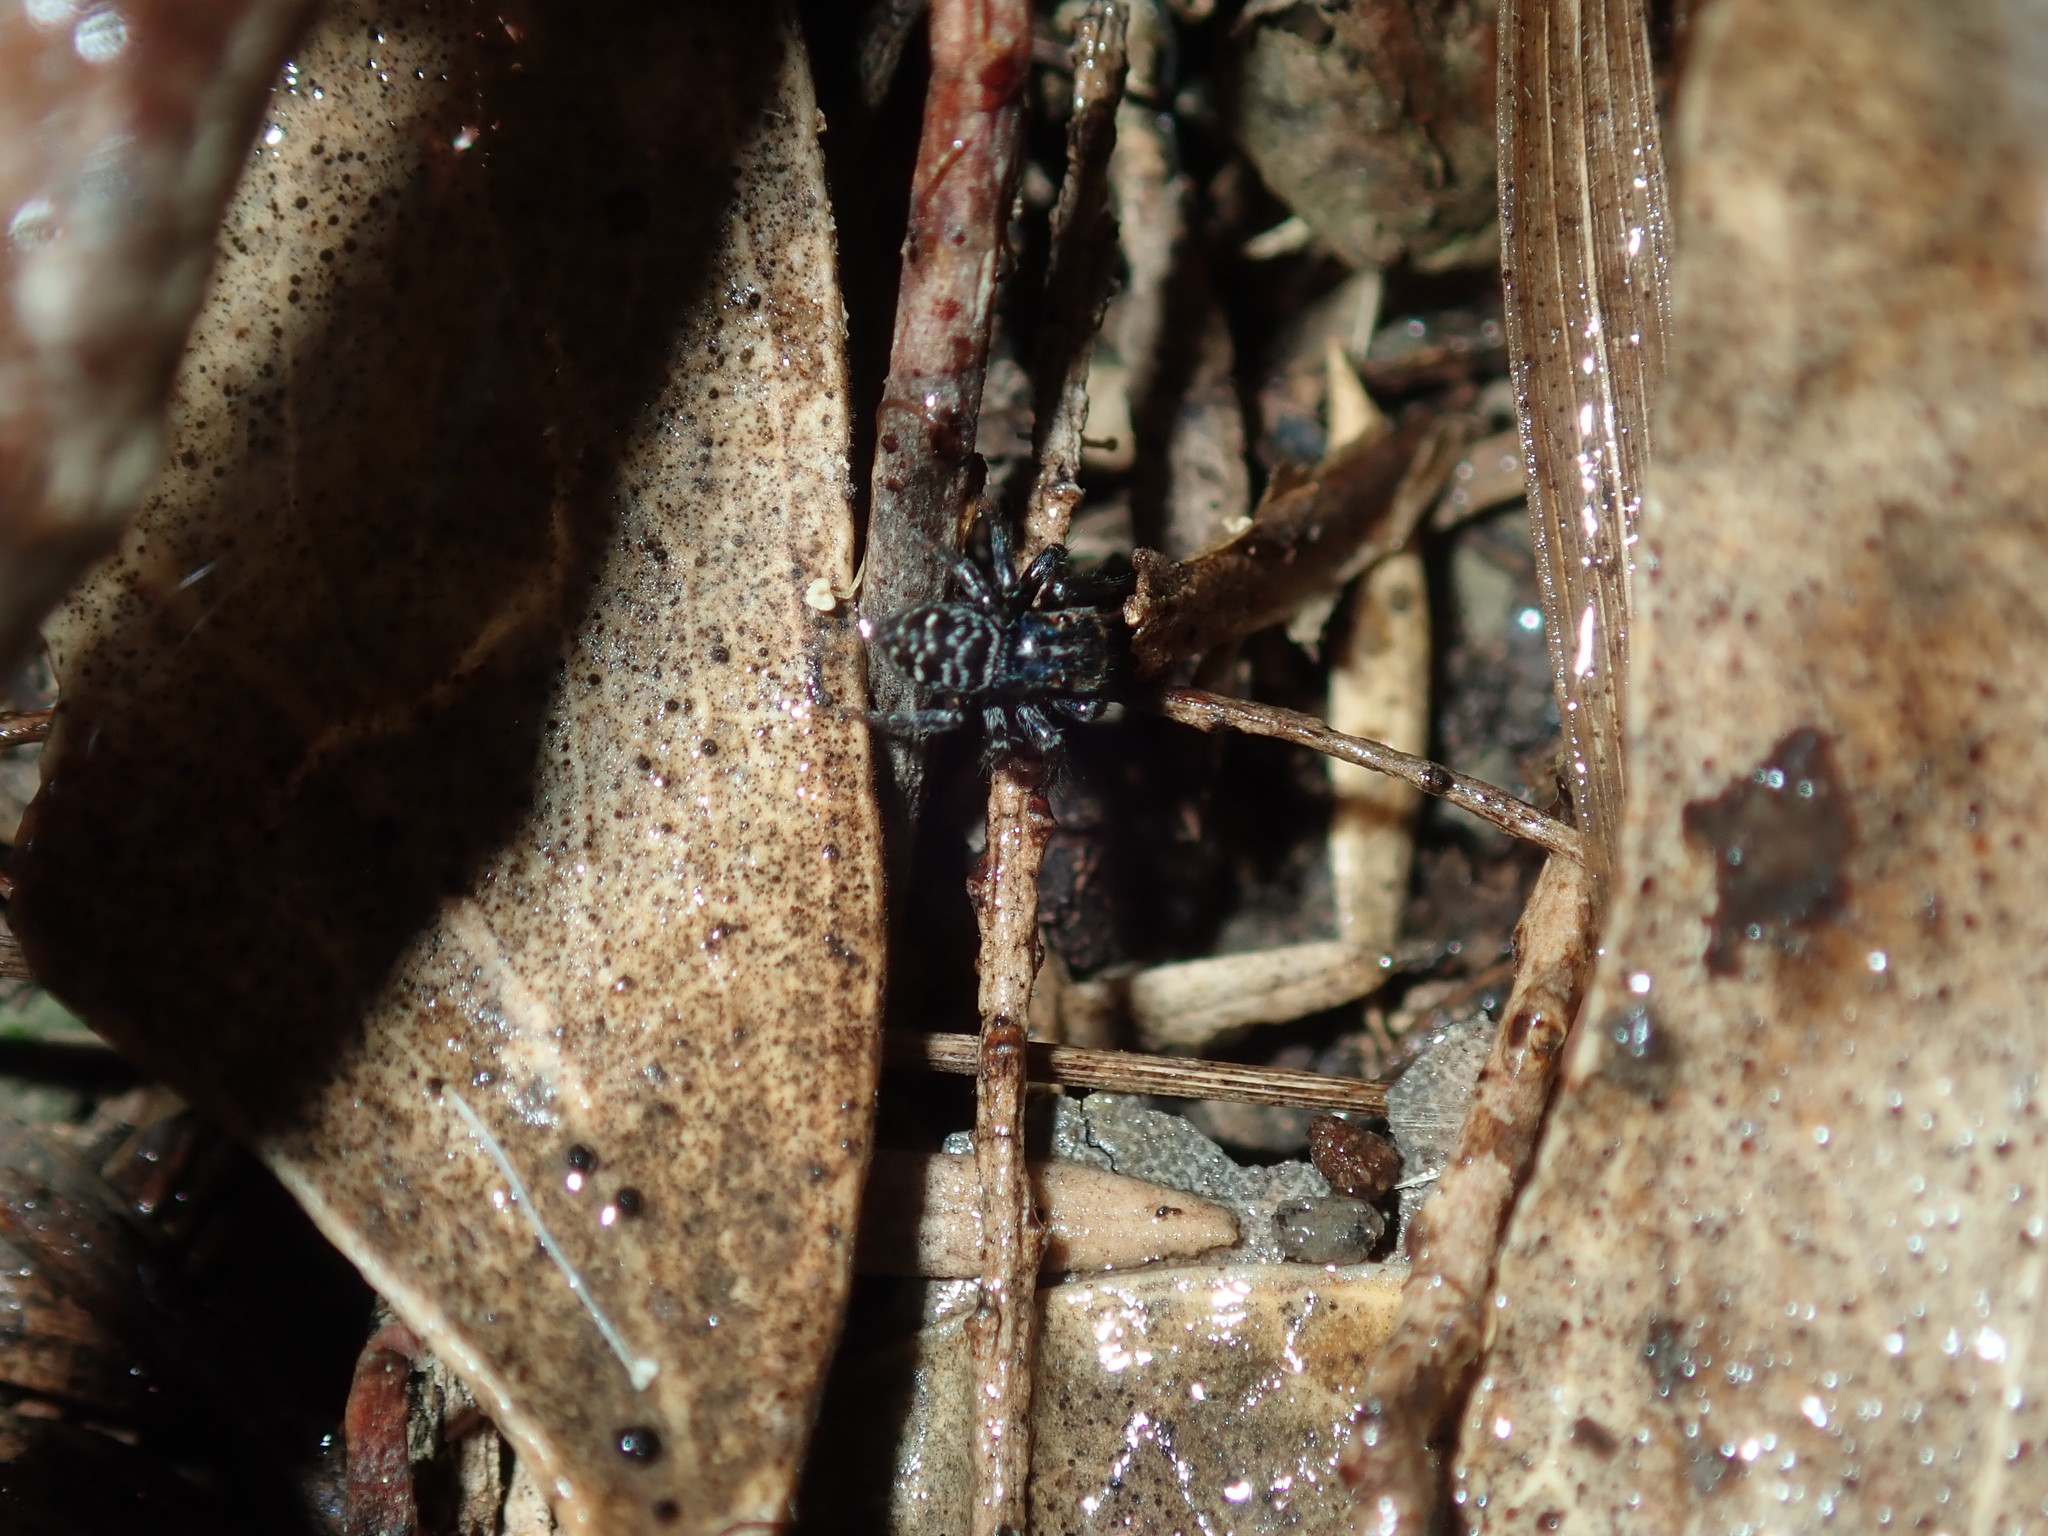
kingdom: Animalia
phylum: Arthropoda
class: Arachnida
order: Araneae
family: Salticidae
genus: Saitis
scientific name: Saitis virgatus
